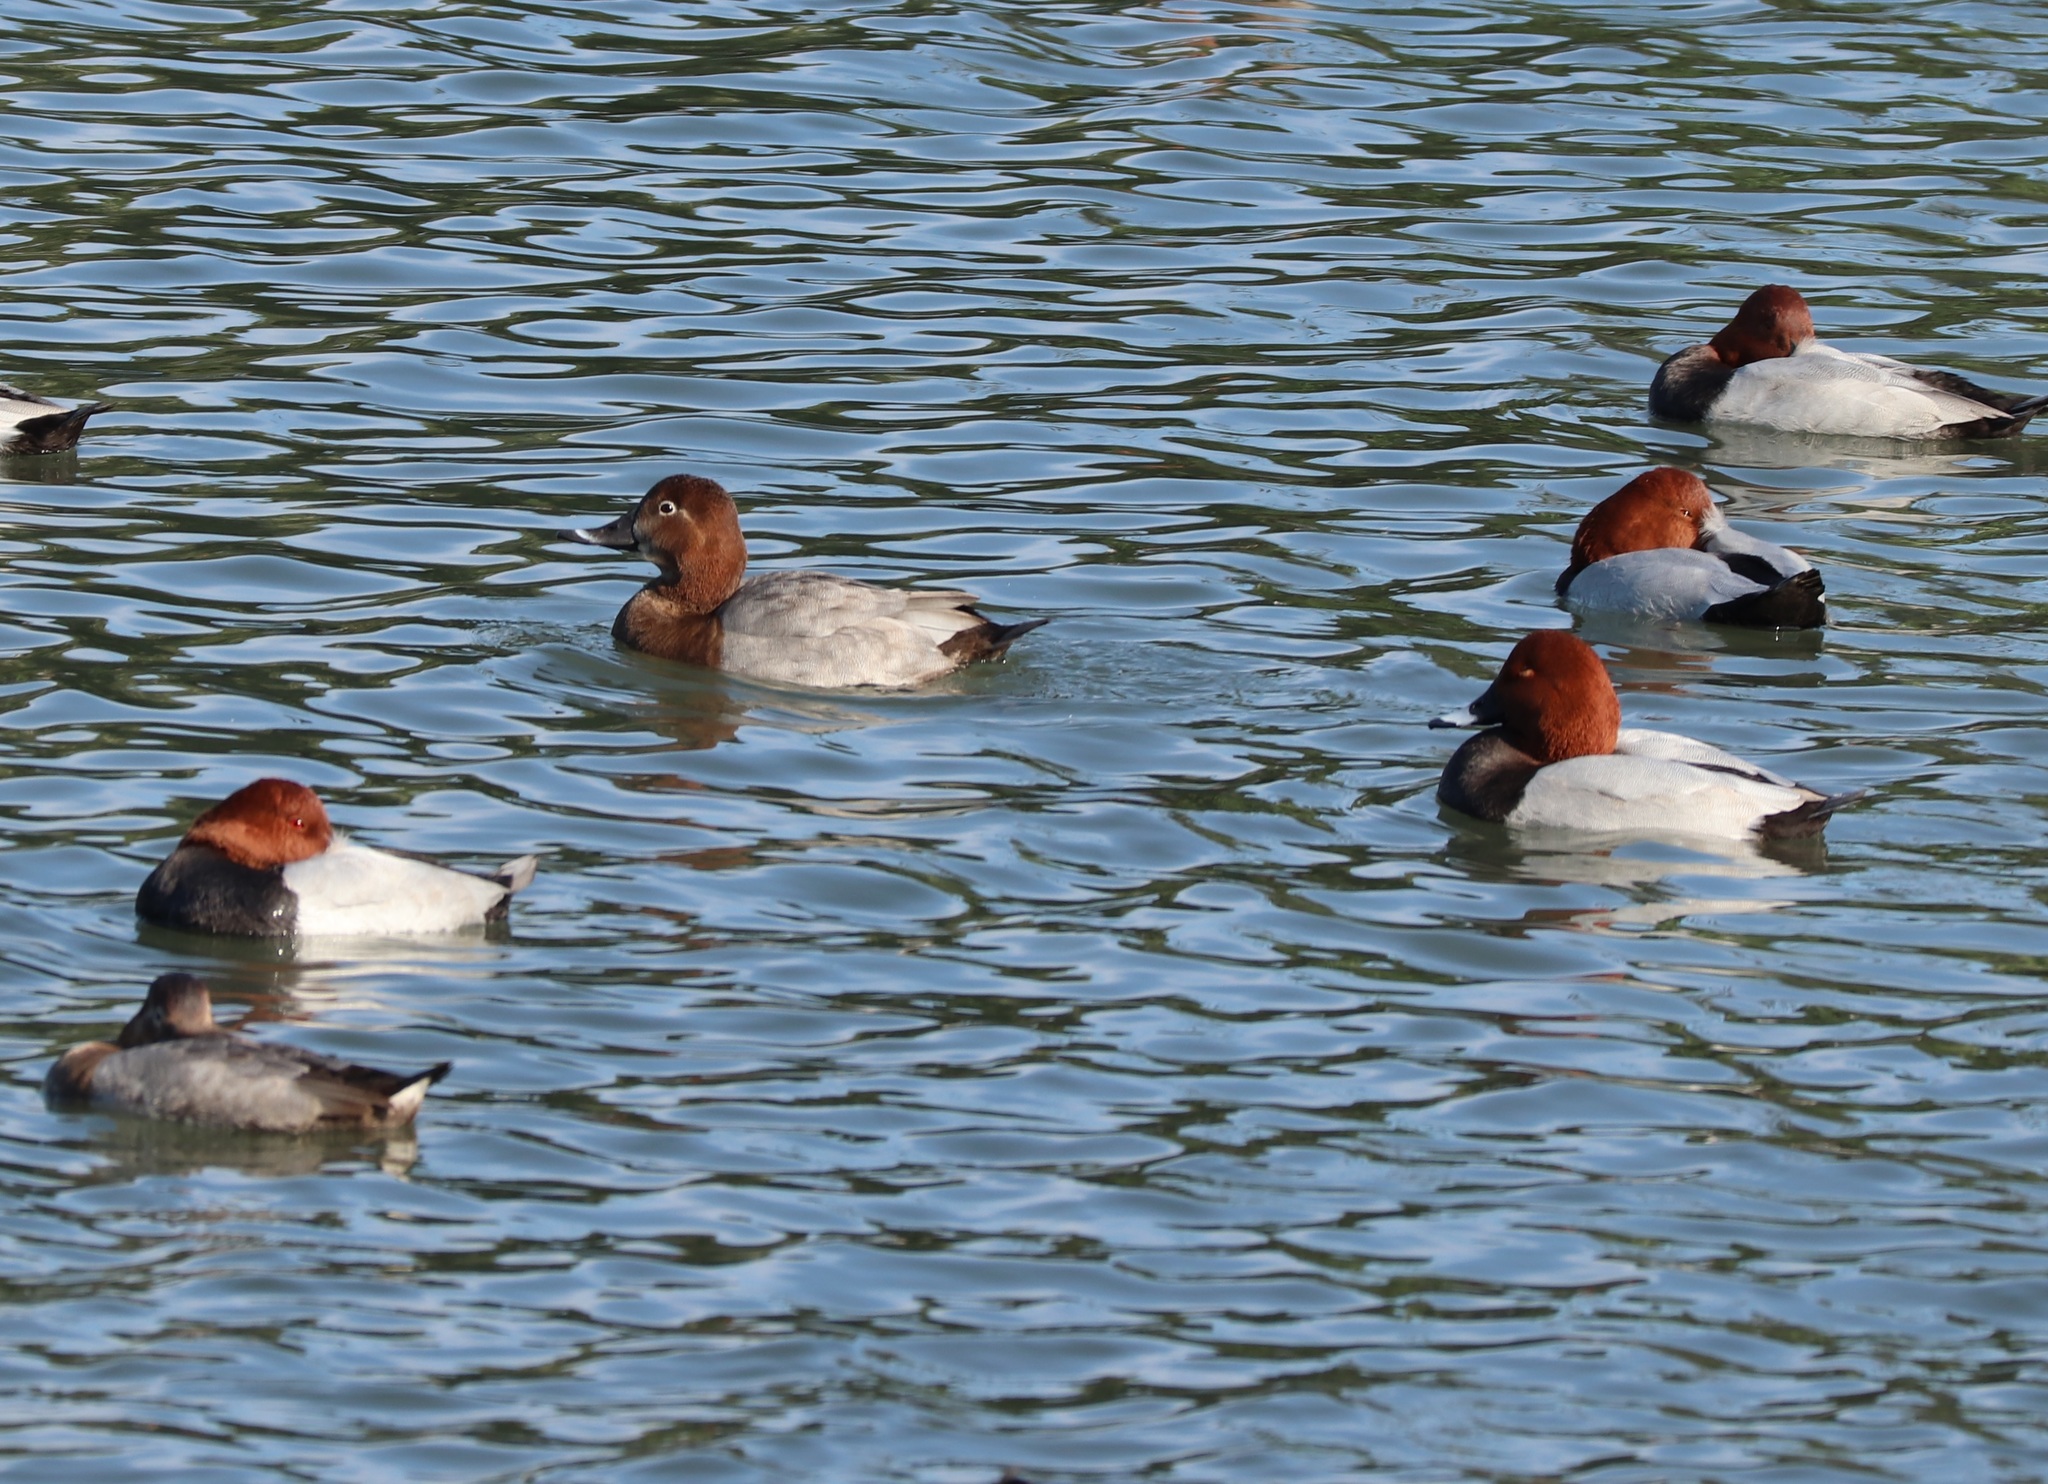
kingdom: Animalia
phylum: Chordata
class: Aves
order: Anseriformes
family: Anatidae
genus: Aythya
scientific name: Aythya ferina
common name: Common pochard
